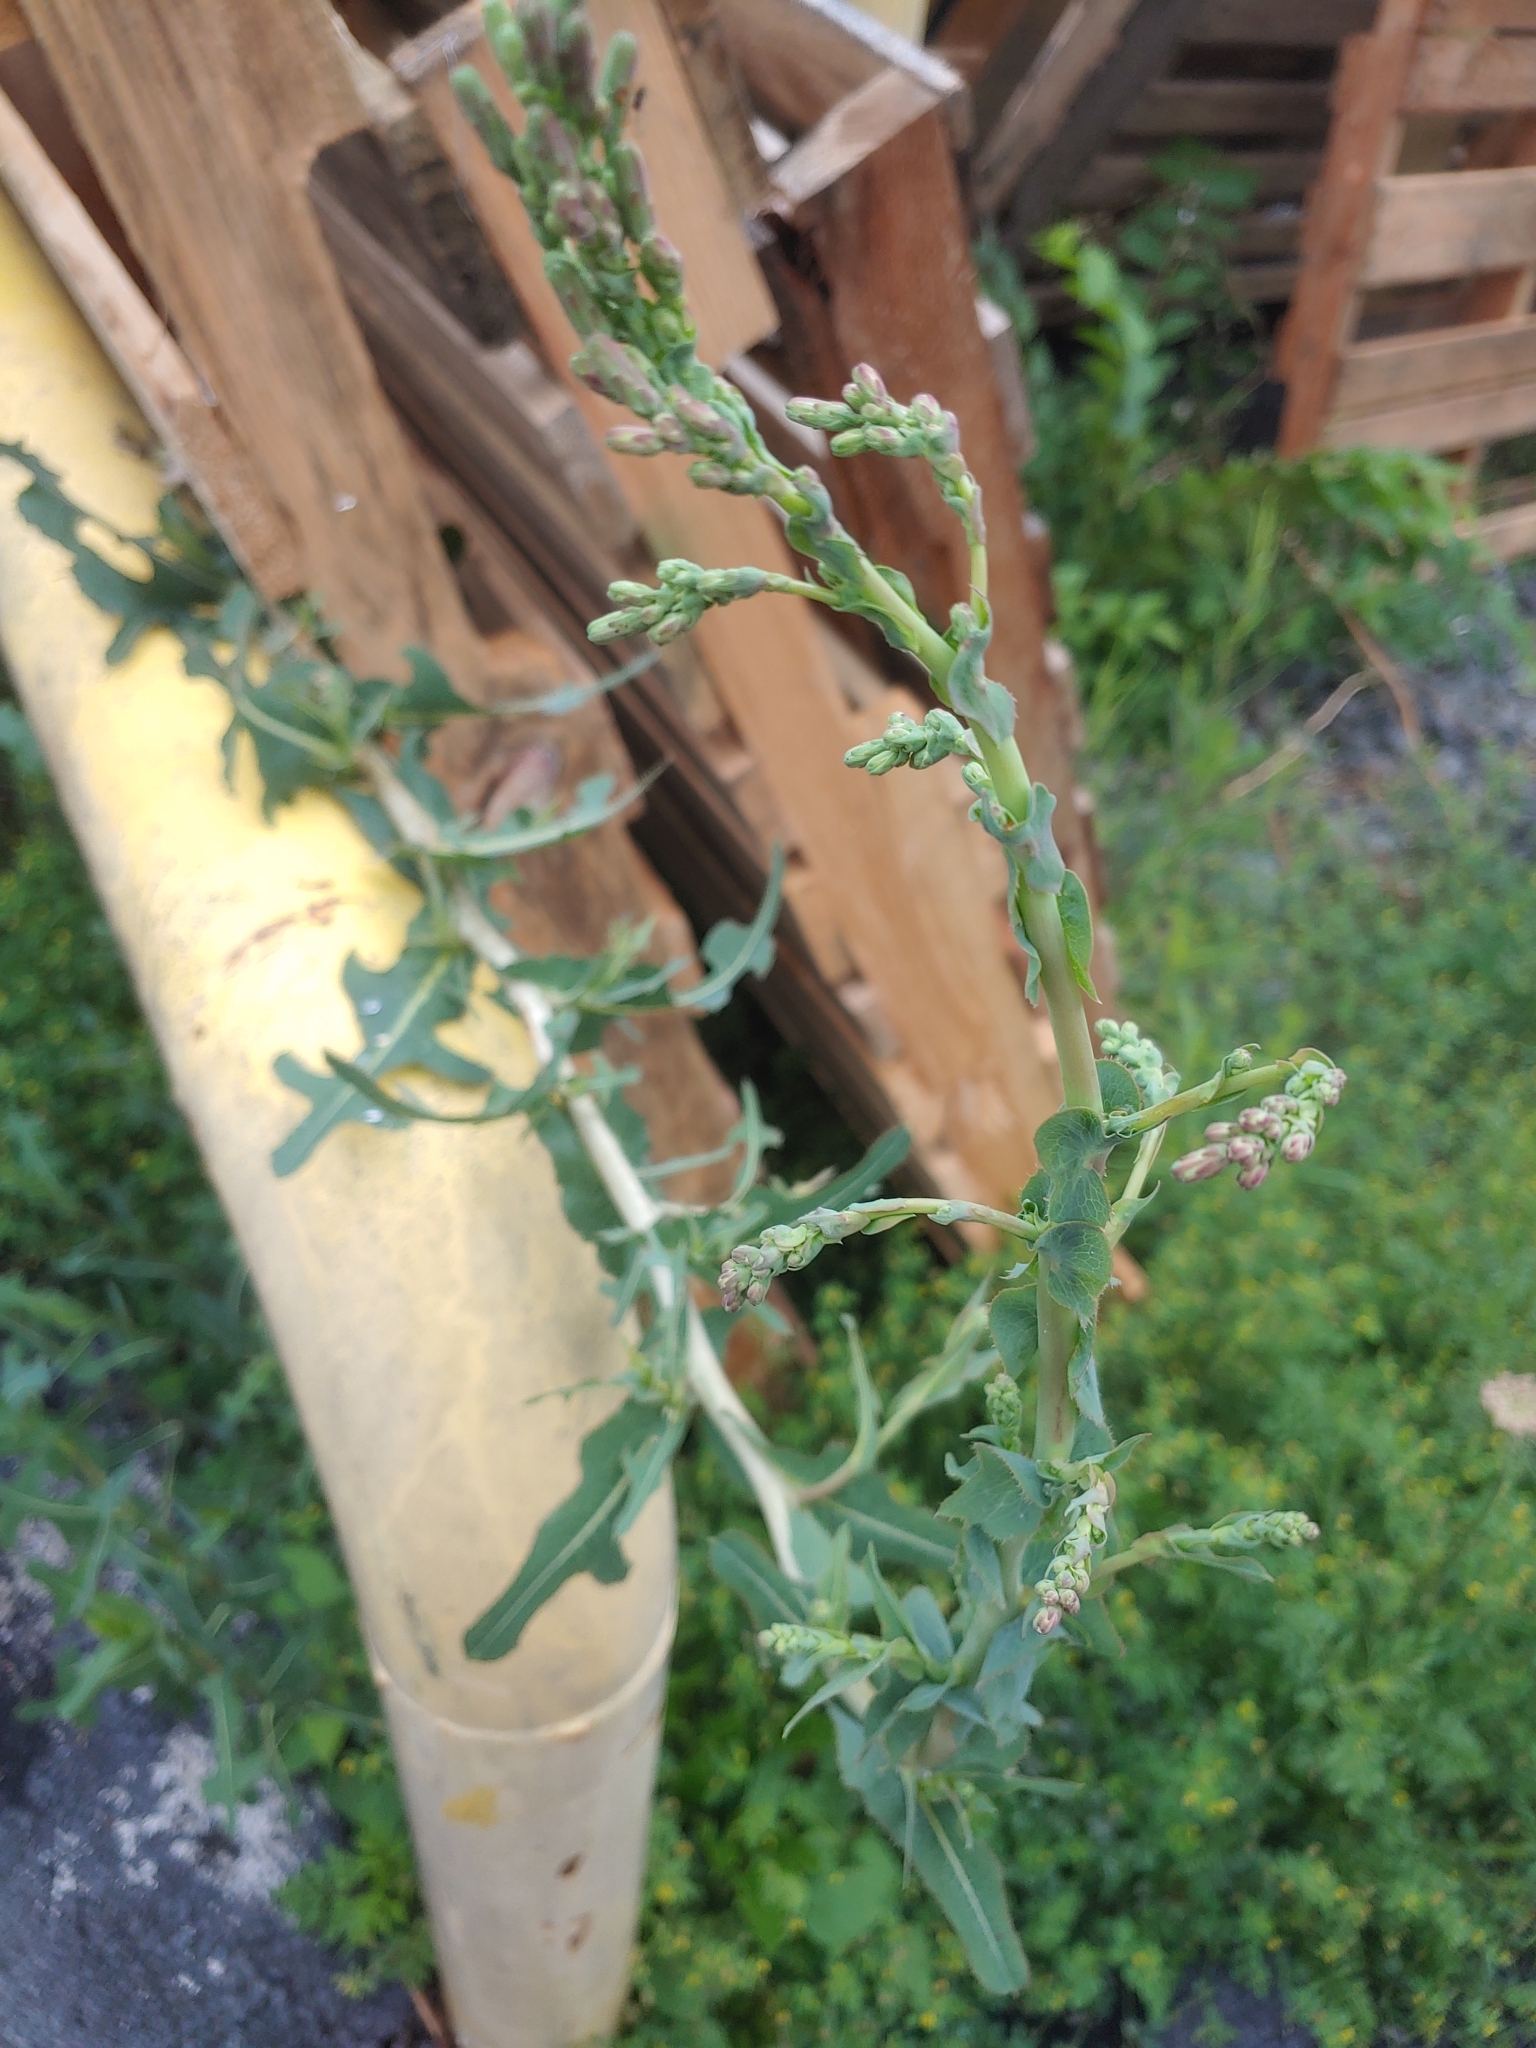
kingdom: Plantae
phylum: Tracheophyta
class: Magnoliopsida
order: Asterales
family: Asteraceae
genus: Lactuca
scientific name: Lactuca serriola
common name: Prickly lettuce
